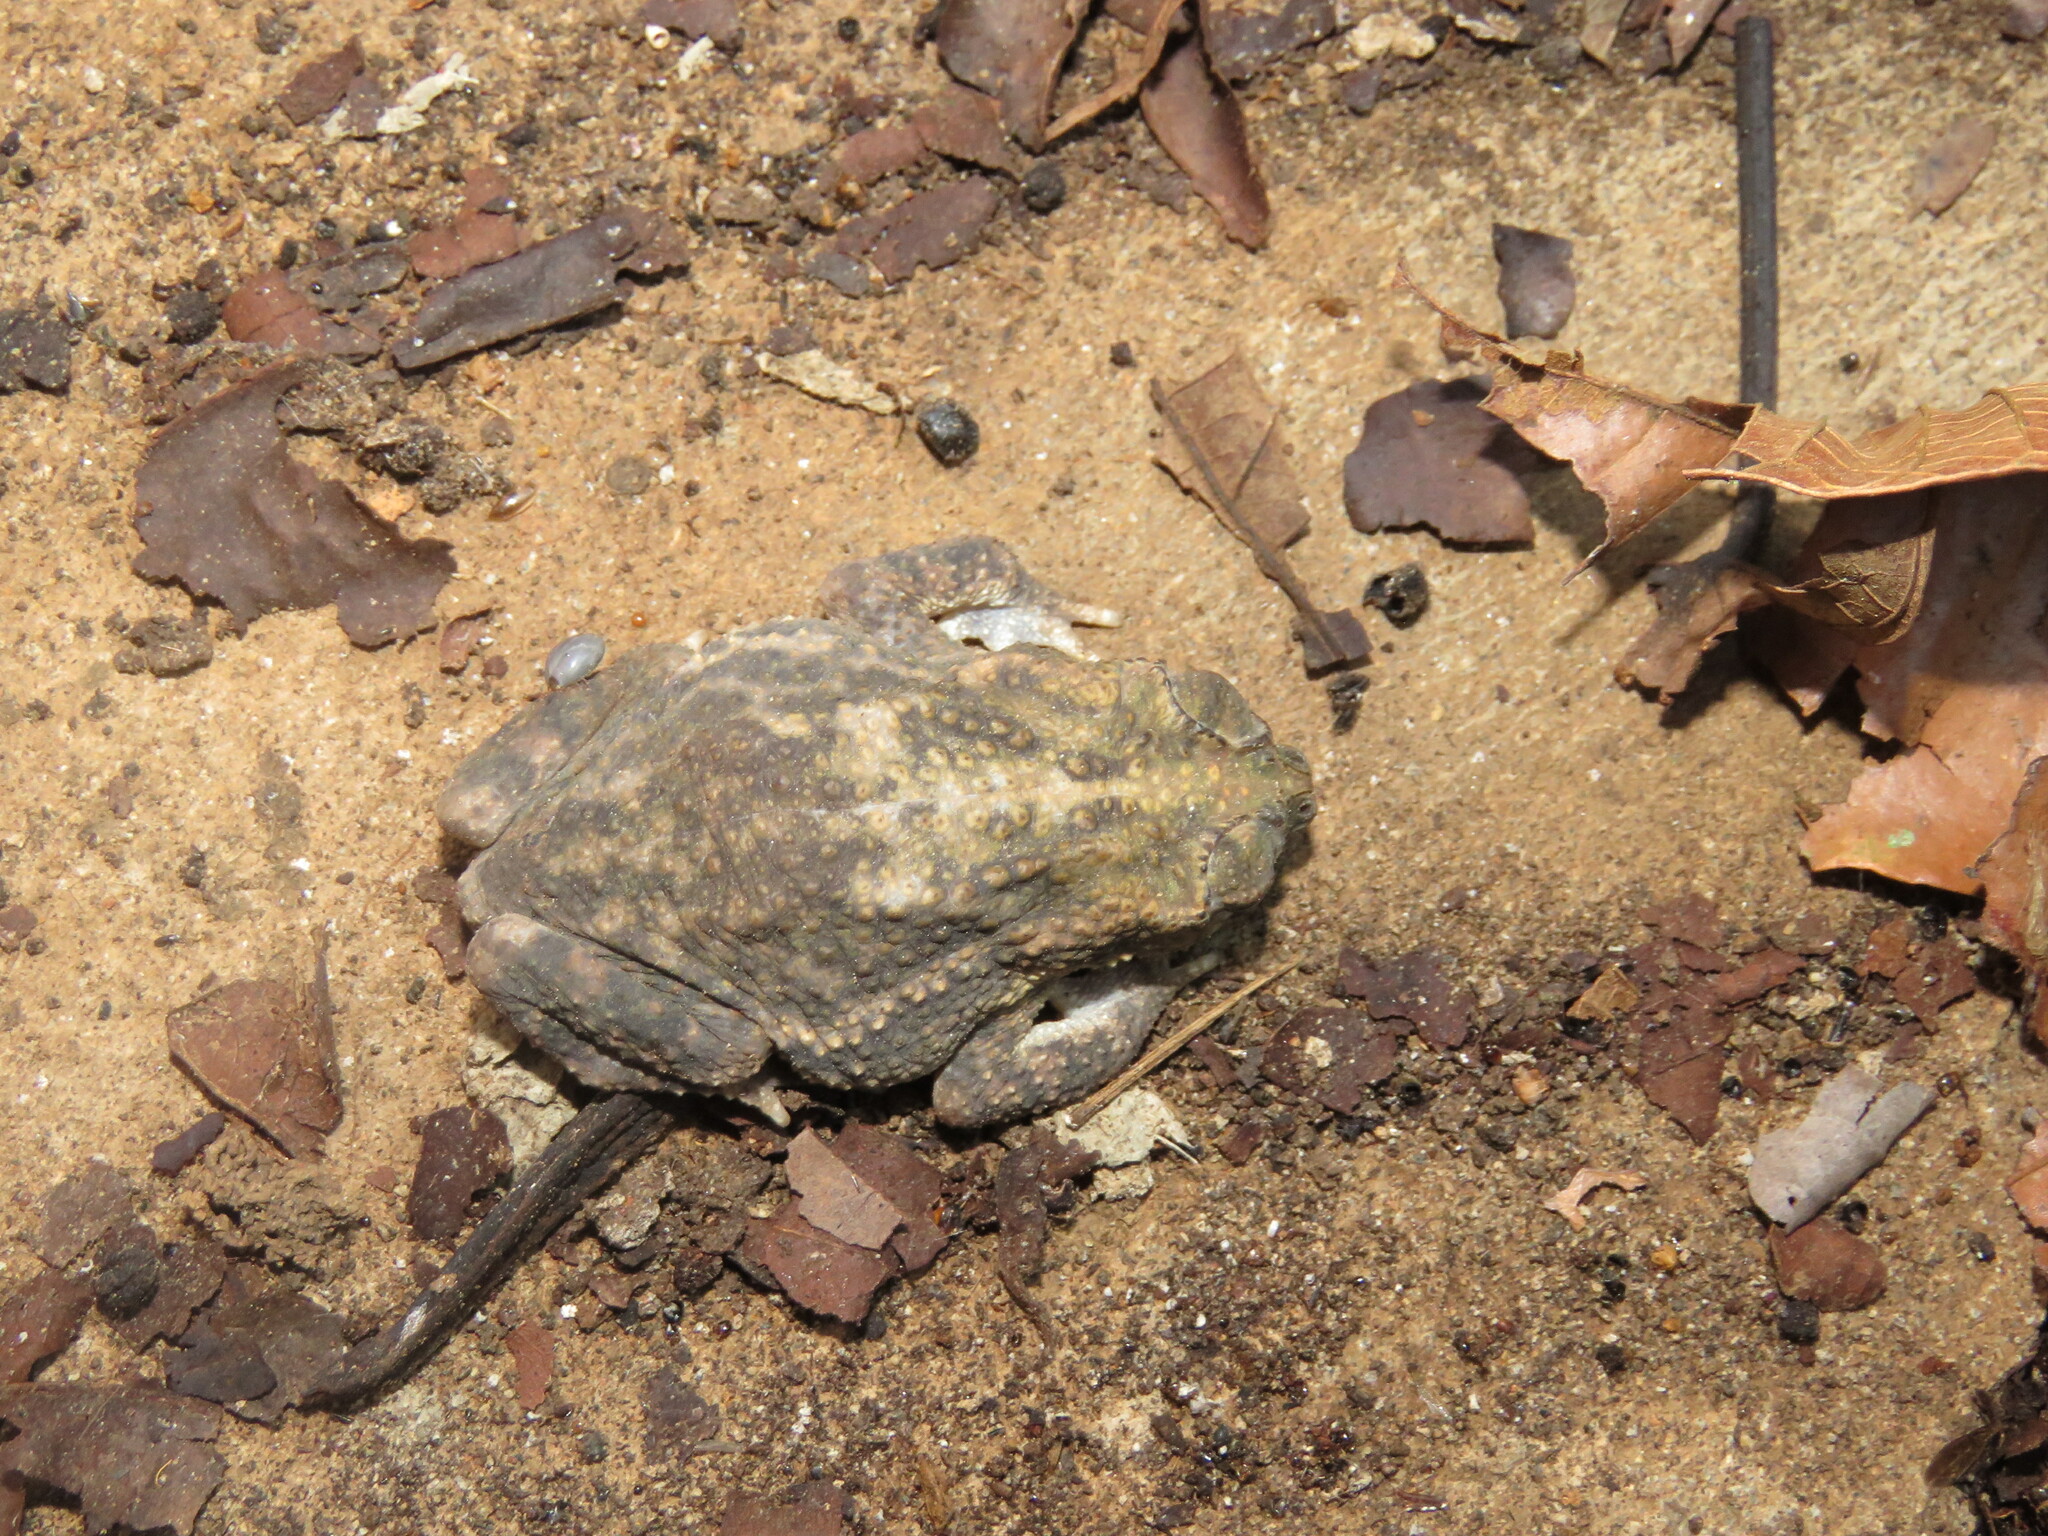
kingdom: Animalia
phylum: Chordata
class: Amphibia
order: Anura
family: Bufonidae
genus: Rhinella
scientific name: Rhinella major
